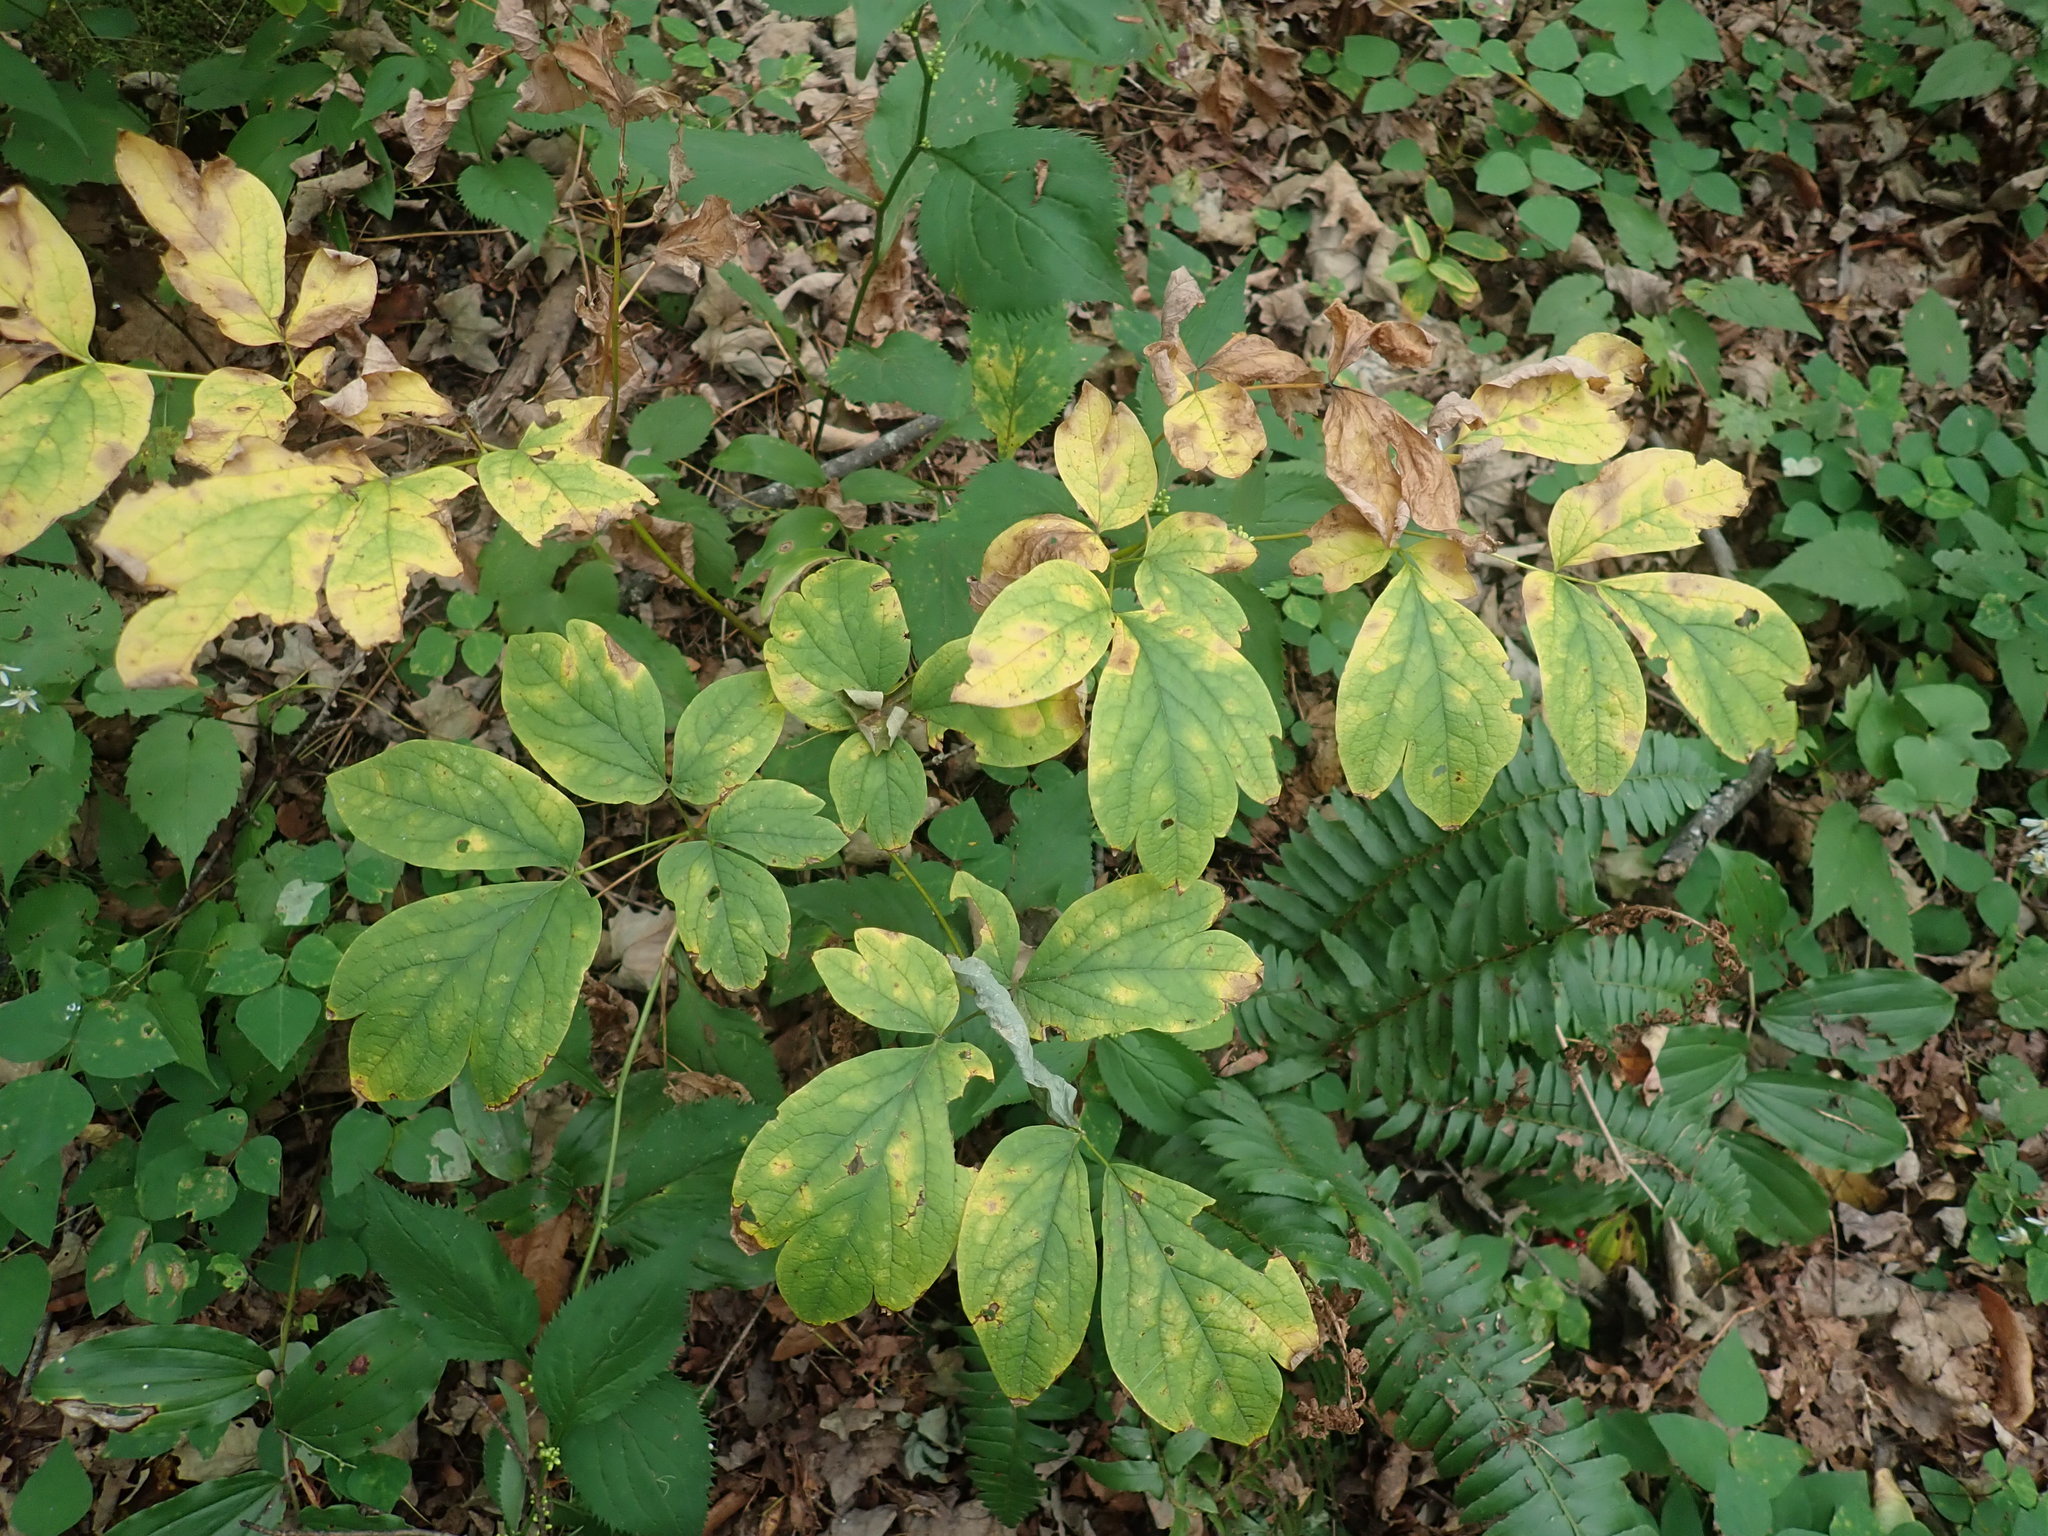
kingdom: Plantae
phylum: Tracheophyta
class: Magnoliopsida
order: Ranunculales
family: Berberidaceae
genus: Caulophyllum
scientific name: Caulophyllum
